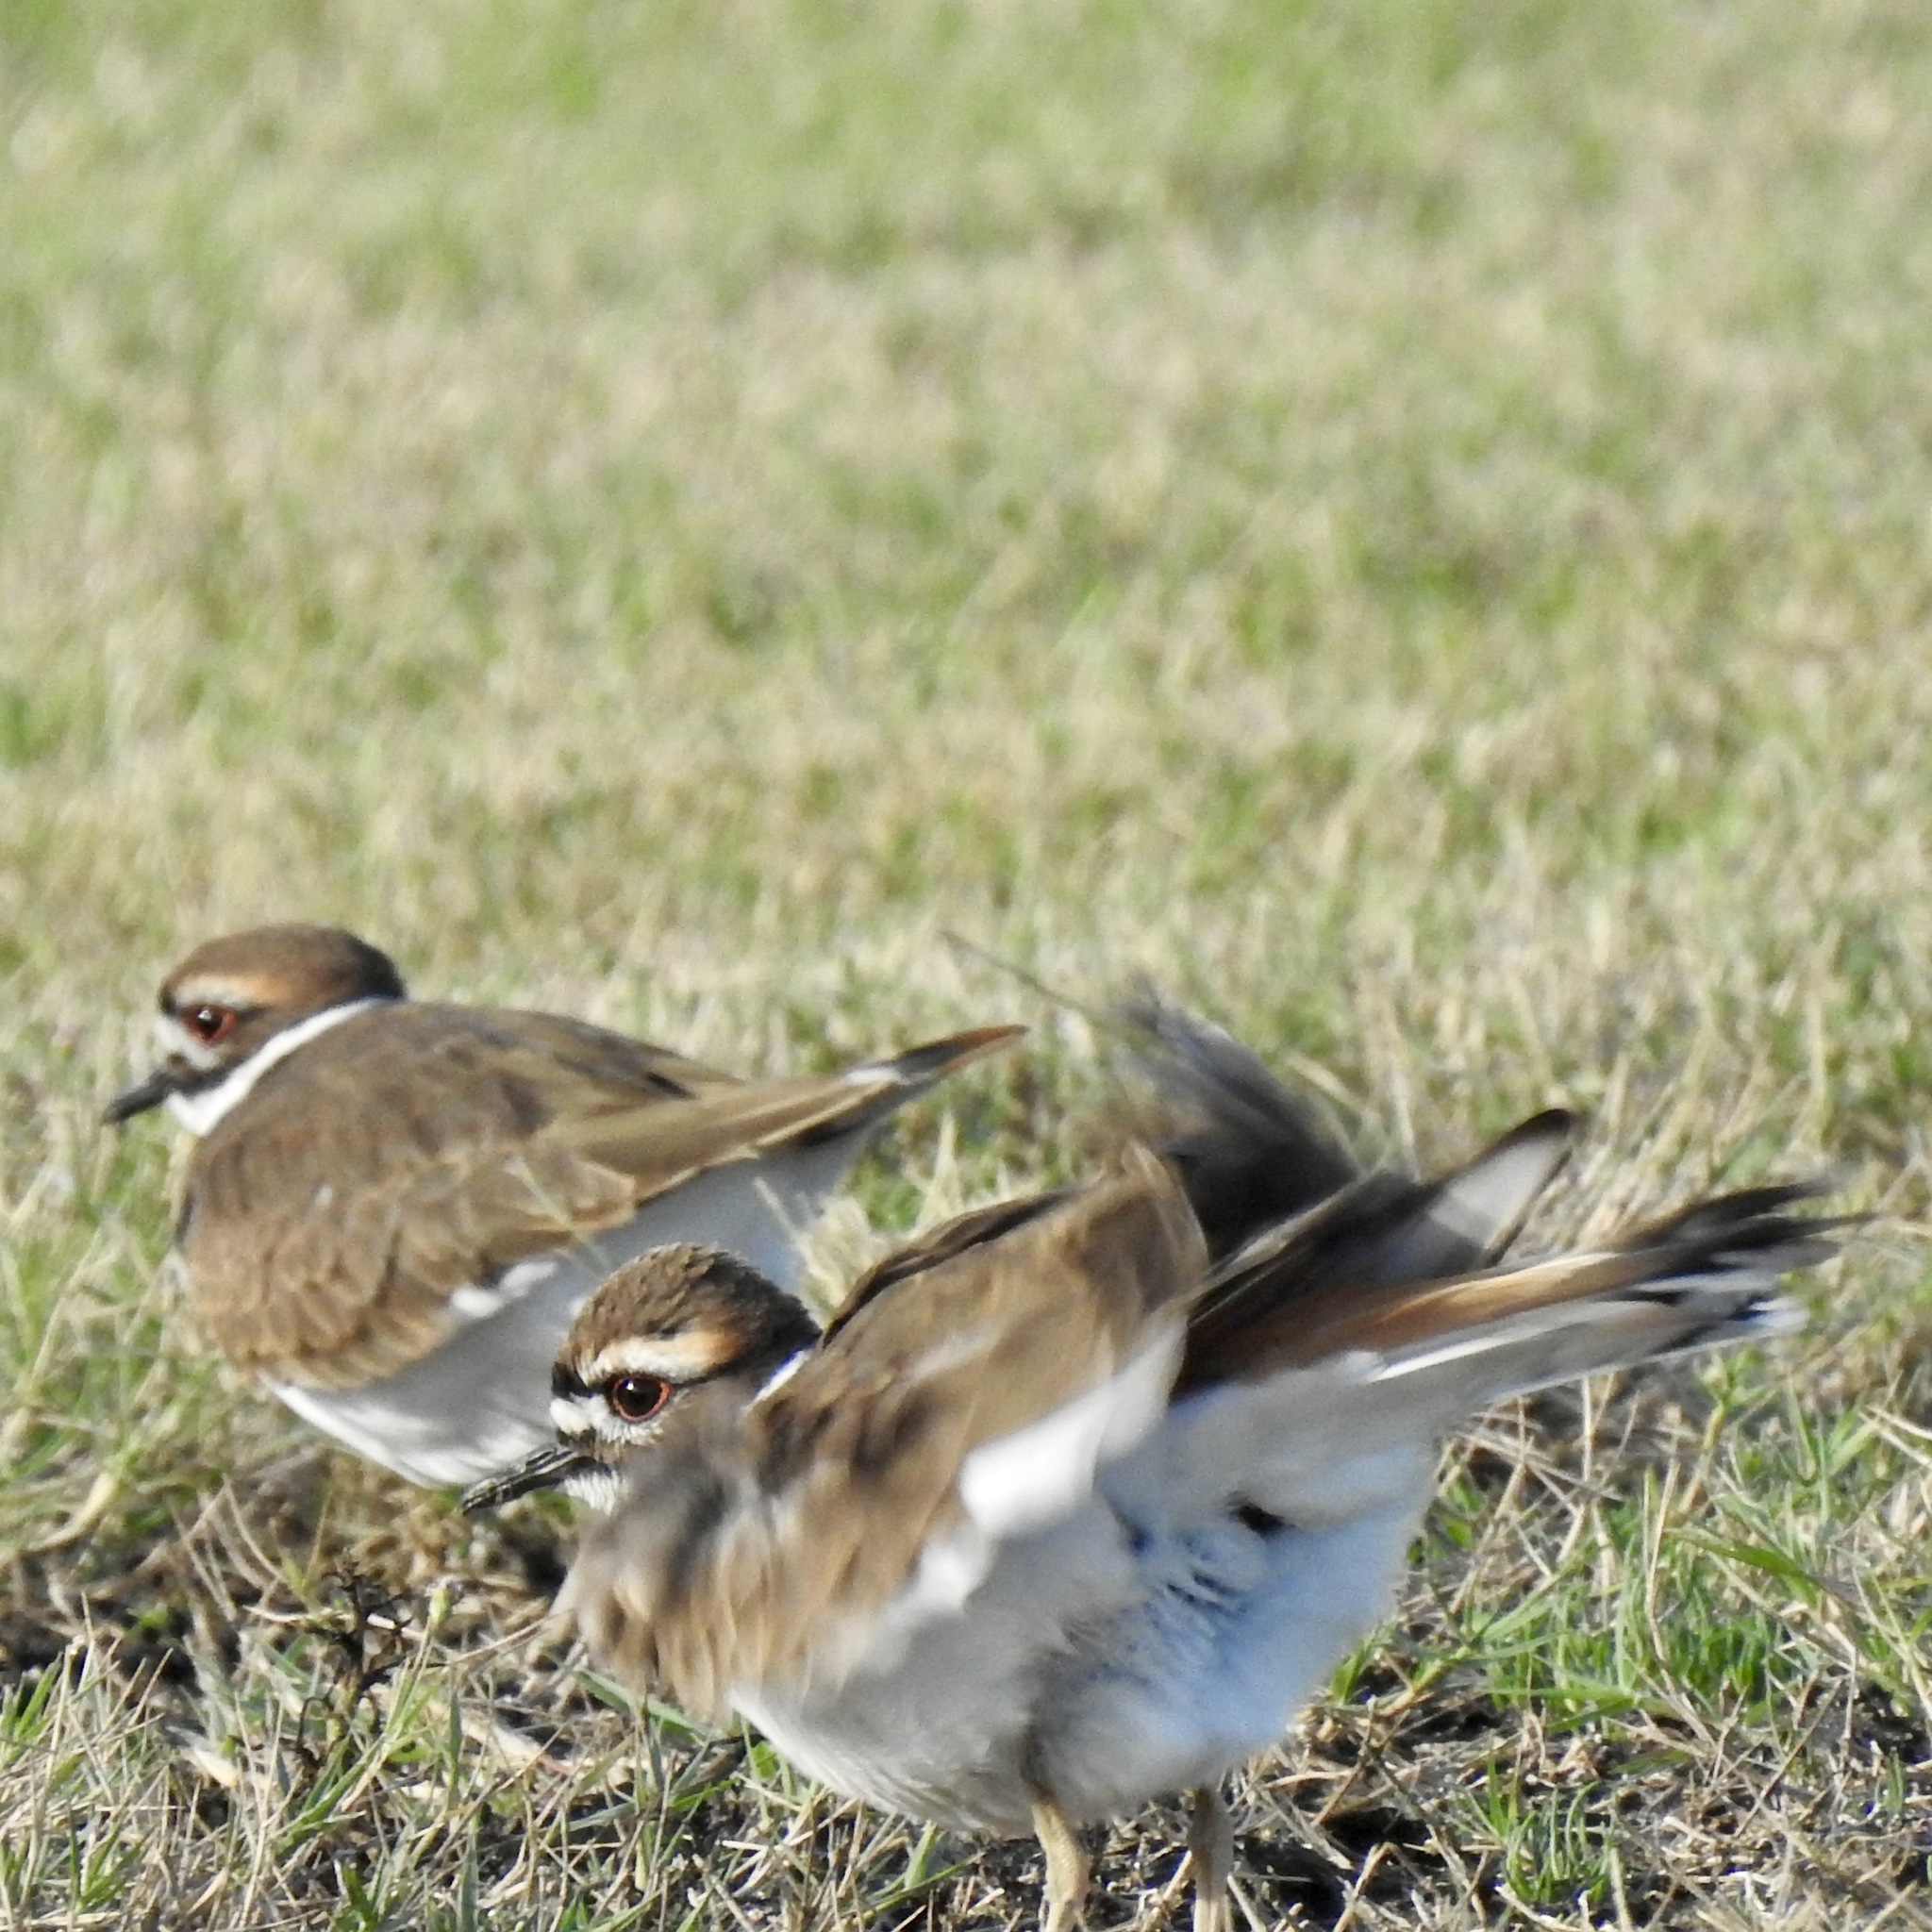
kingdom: Animalia
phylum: Chordata
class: Aves
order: Charadriiformes
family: Charadriidae
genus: Charadrius
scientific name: Charadrius vociferus
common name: Killdeer
